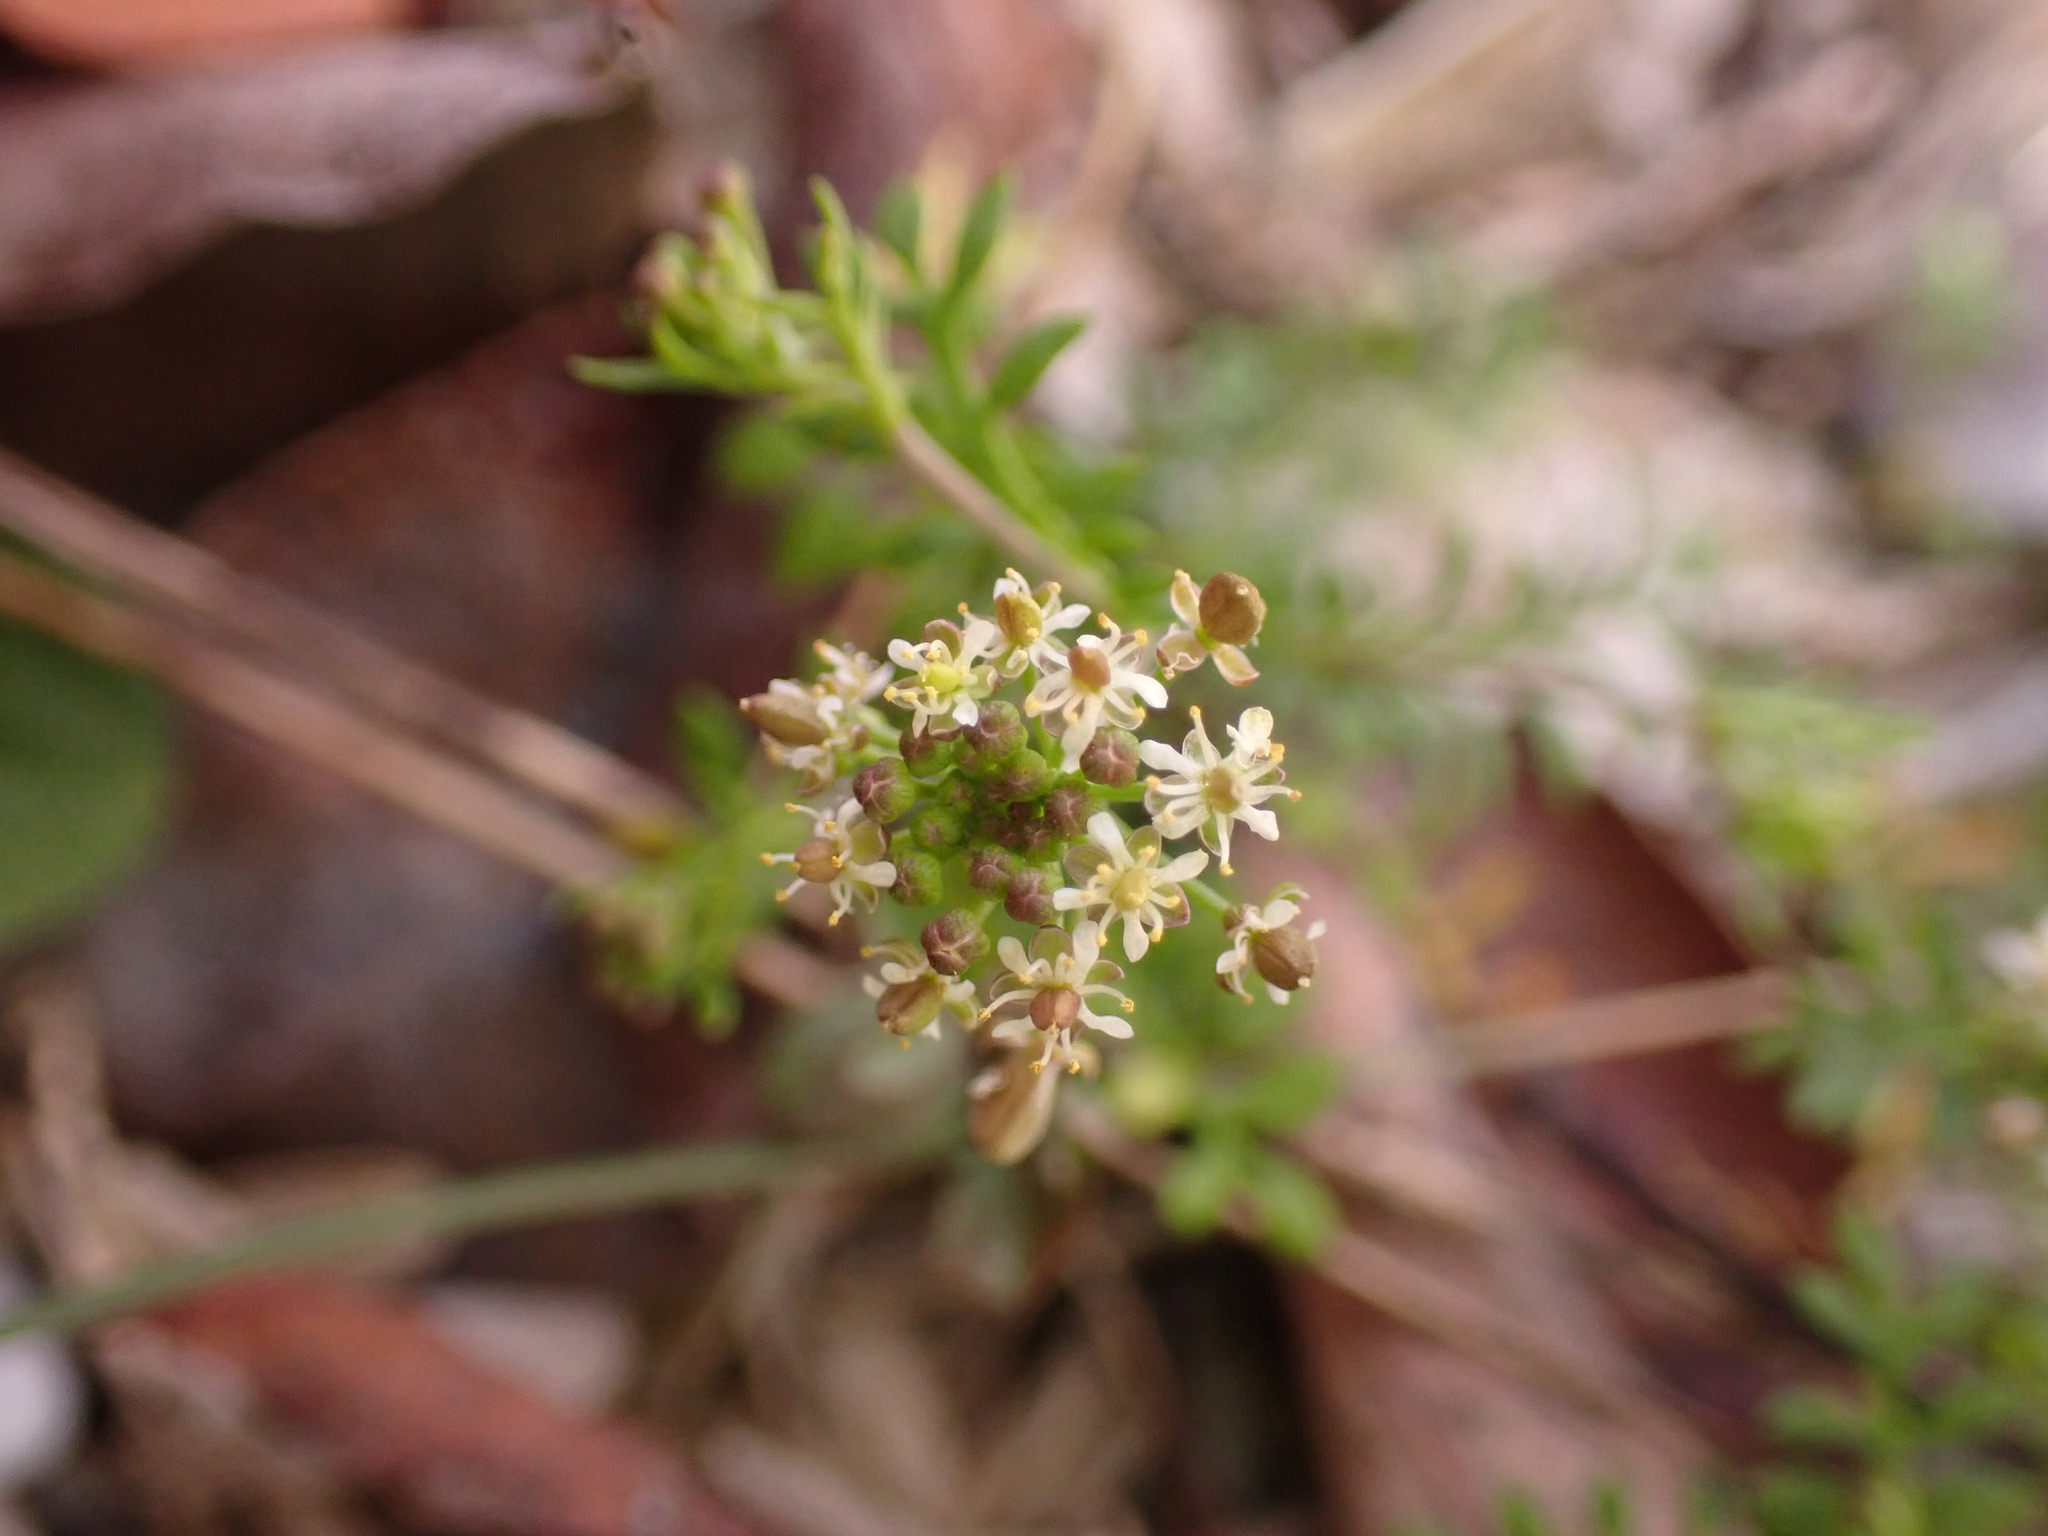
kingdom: Plantae
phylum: Tracheophyta
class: Magnoliopsida
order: Brassicales
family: Brassicaceae
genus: Hornungia
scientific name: Hornungia petraea
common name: Hutchinsia
